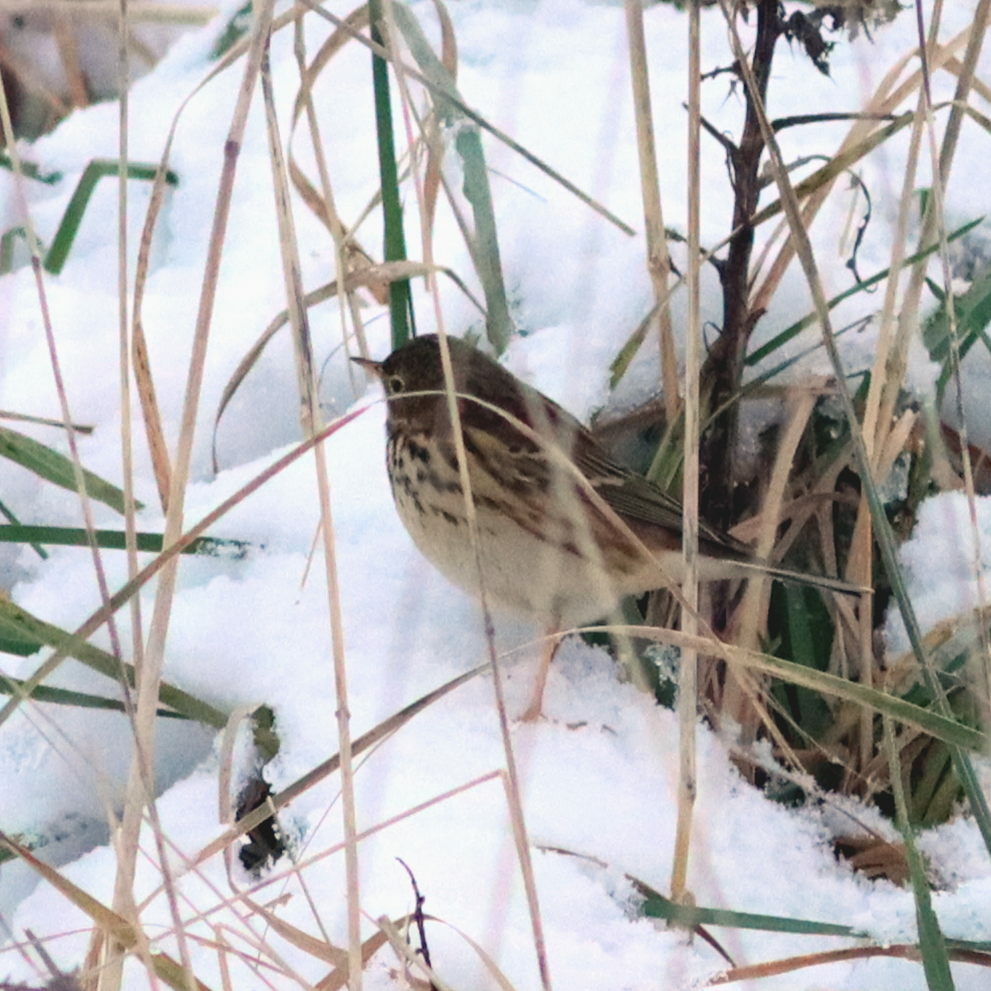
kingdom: Animalia
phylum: Chordata
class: Aves
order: Passeriformes
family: Motacillidae
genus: Anthus
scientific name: Anthus pratensis
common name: Meadow pipit
